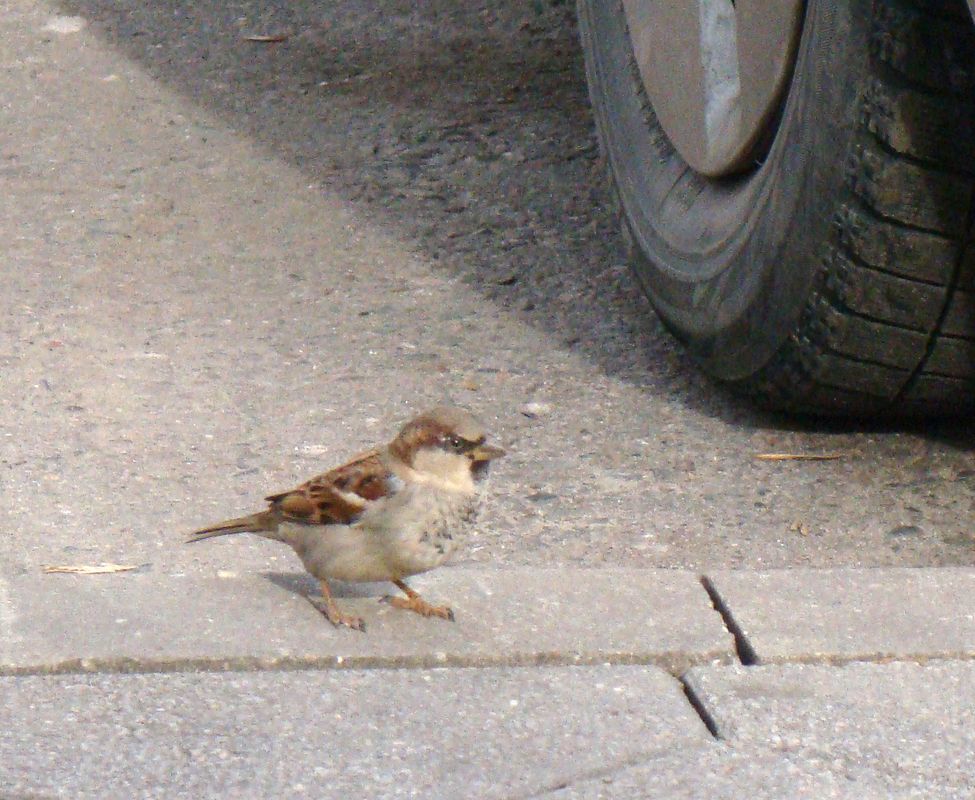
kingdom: Animalia
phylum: Chordata
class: Aves
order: Passeriformes
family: Passeridae
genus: Passer
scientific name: Passer domesticus
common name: House sparrow
